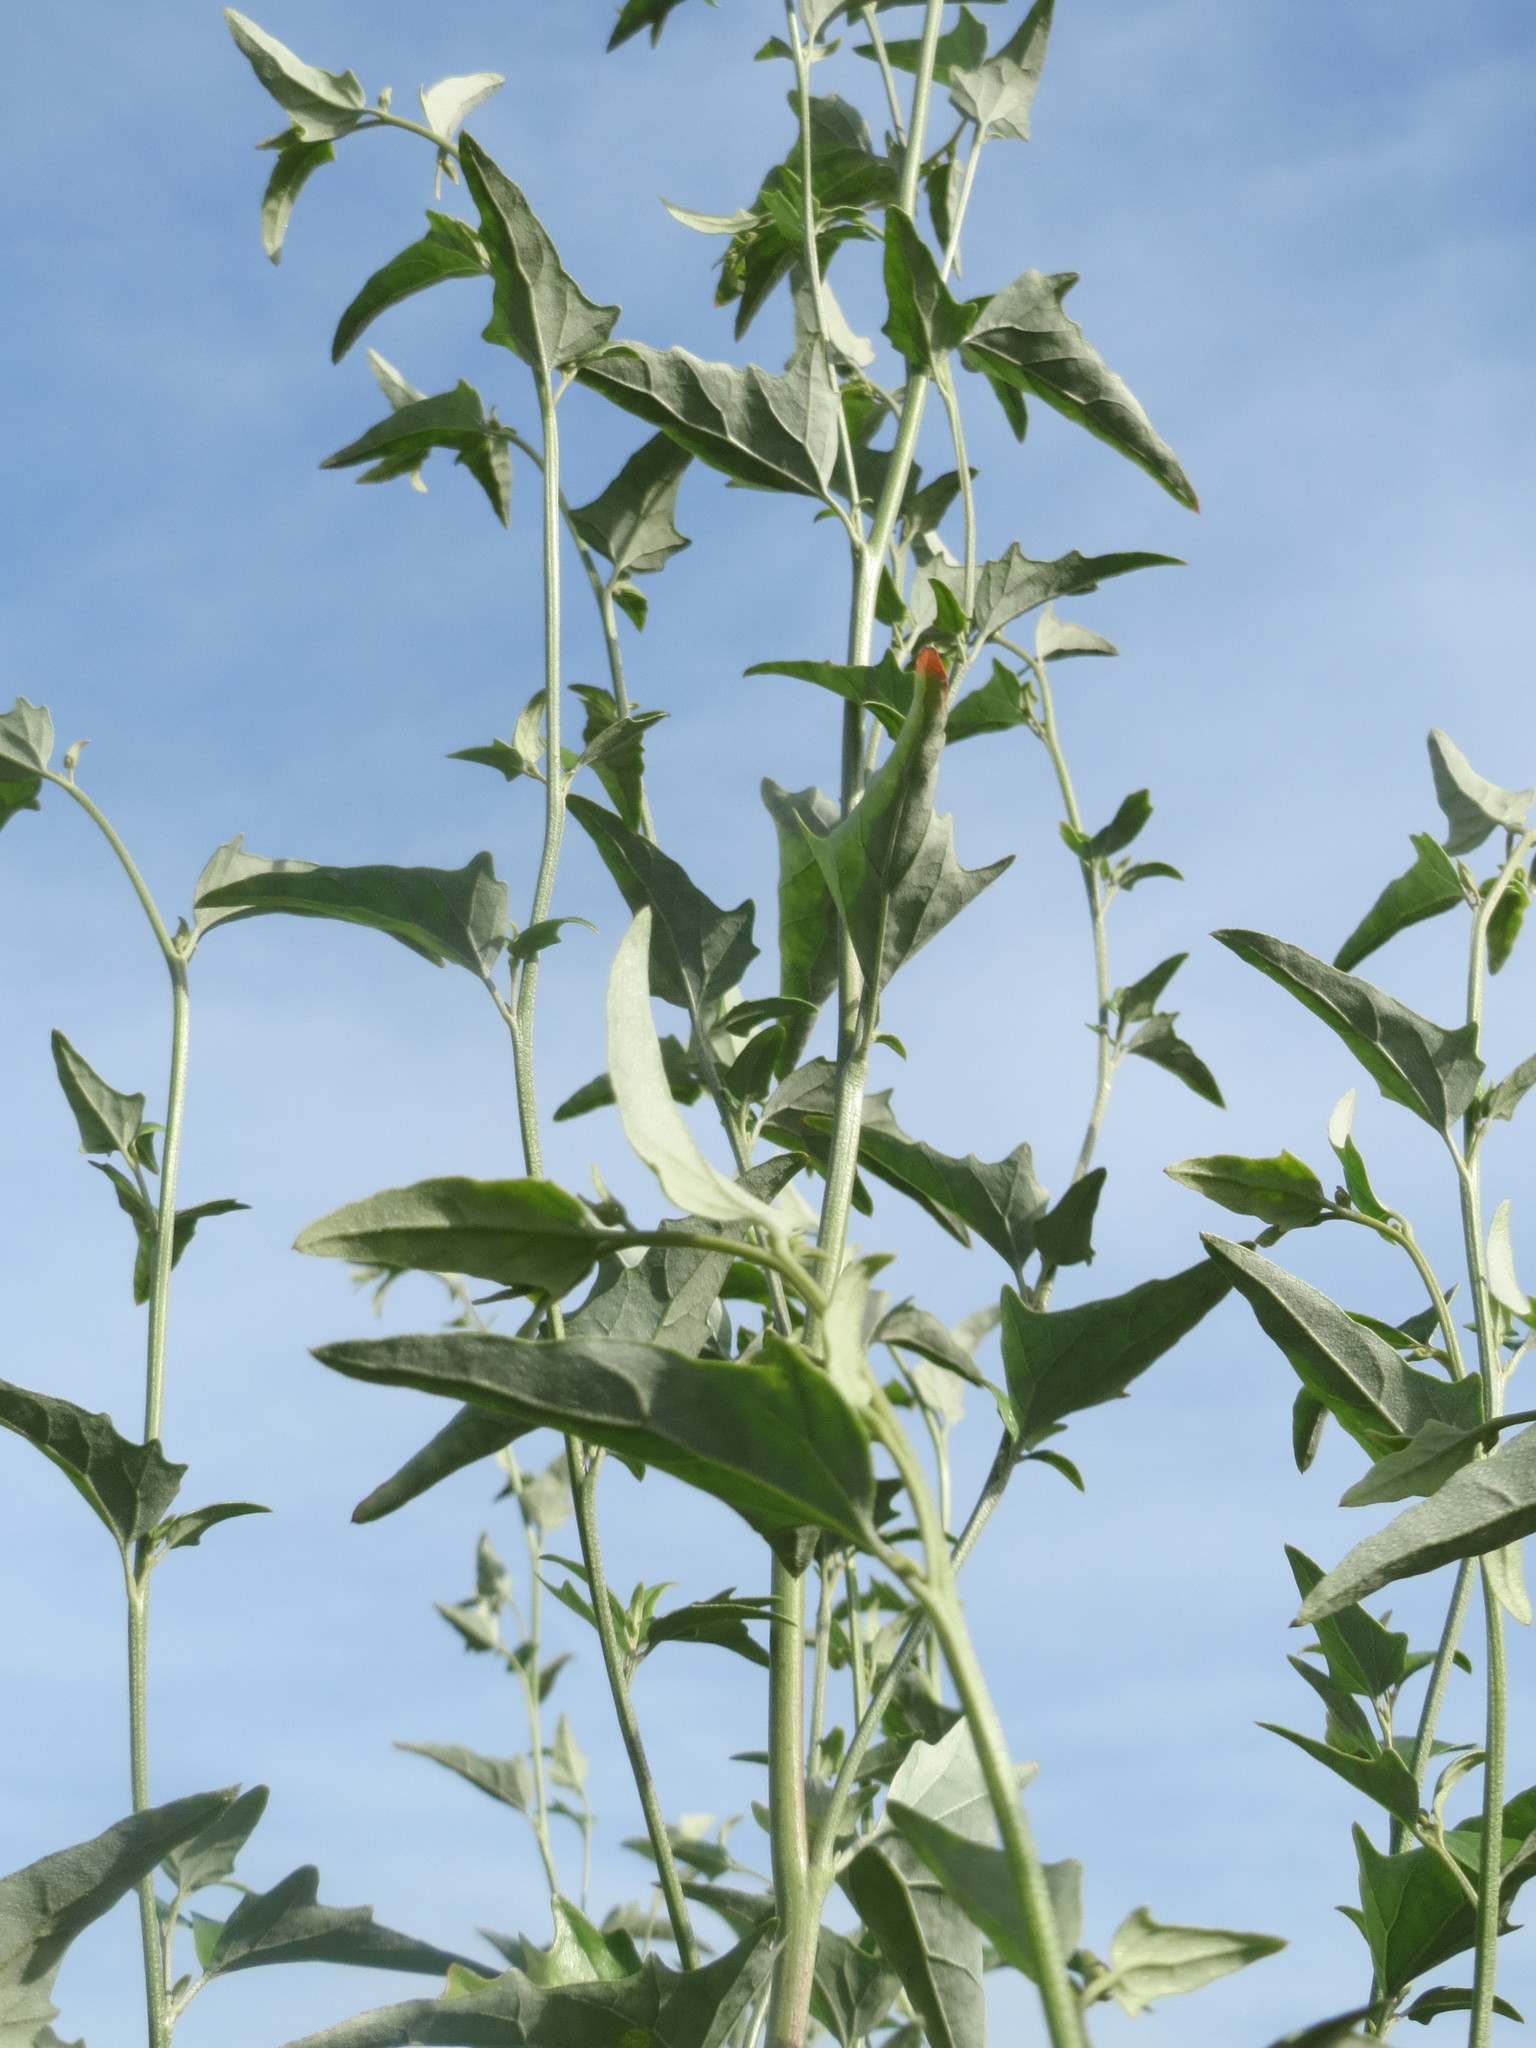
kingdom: Plantae
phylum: Tracheophyta
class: Magnoliopsida
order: Caryophyllales
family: Amaranthaceae
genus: Atriplex
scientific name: Atriplex sagittata
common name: Purple orache
